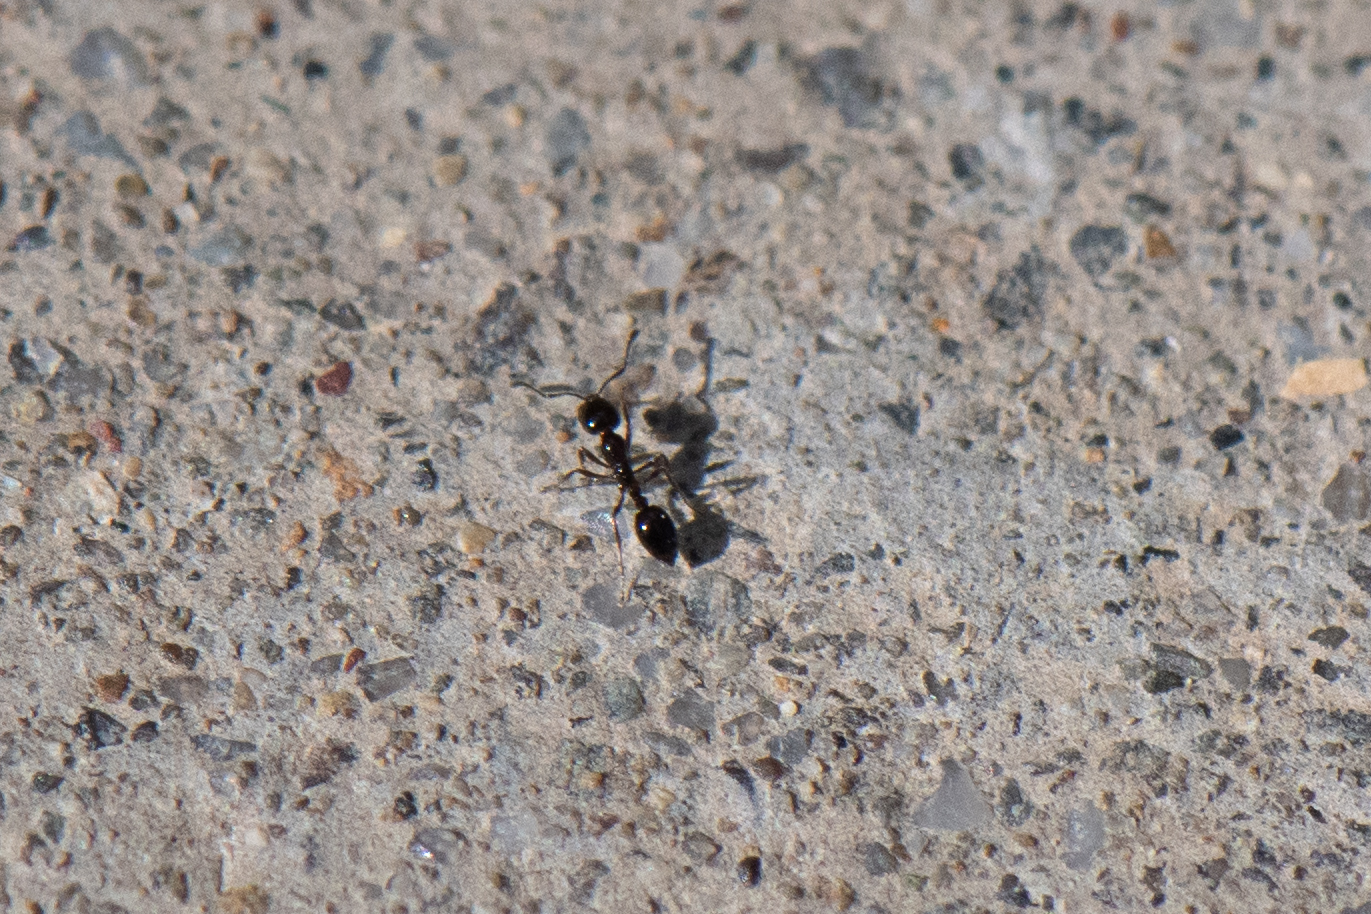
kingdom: Animalia
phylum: Arthropoda
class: Insecta
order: Hymenoptera
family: Formicidae
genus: Monomorium
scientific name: Monomorium ergatogyna
